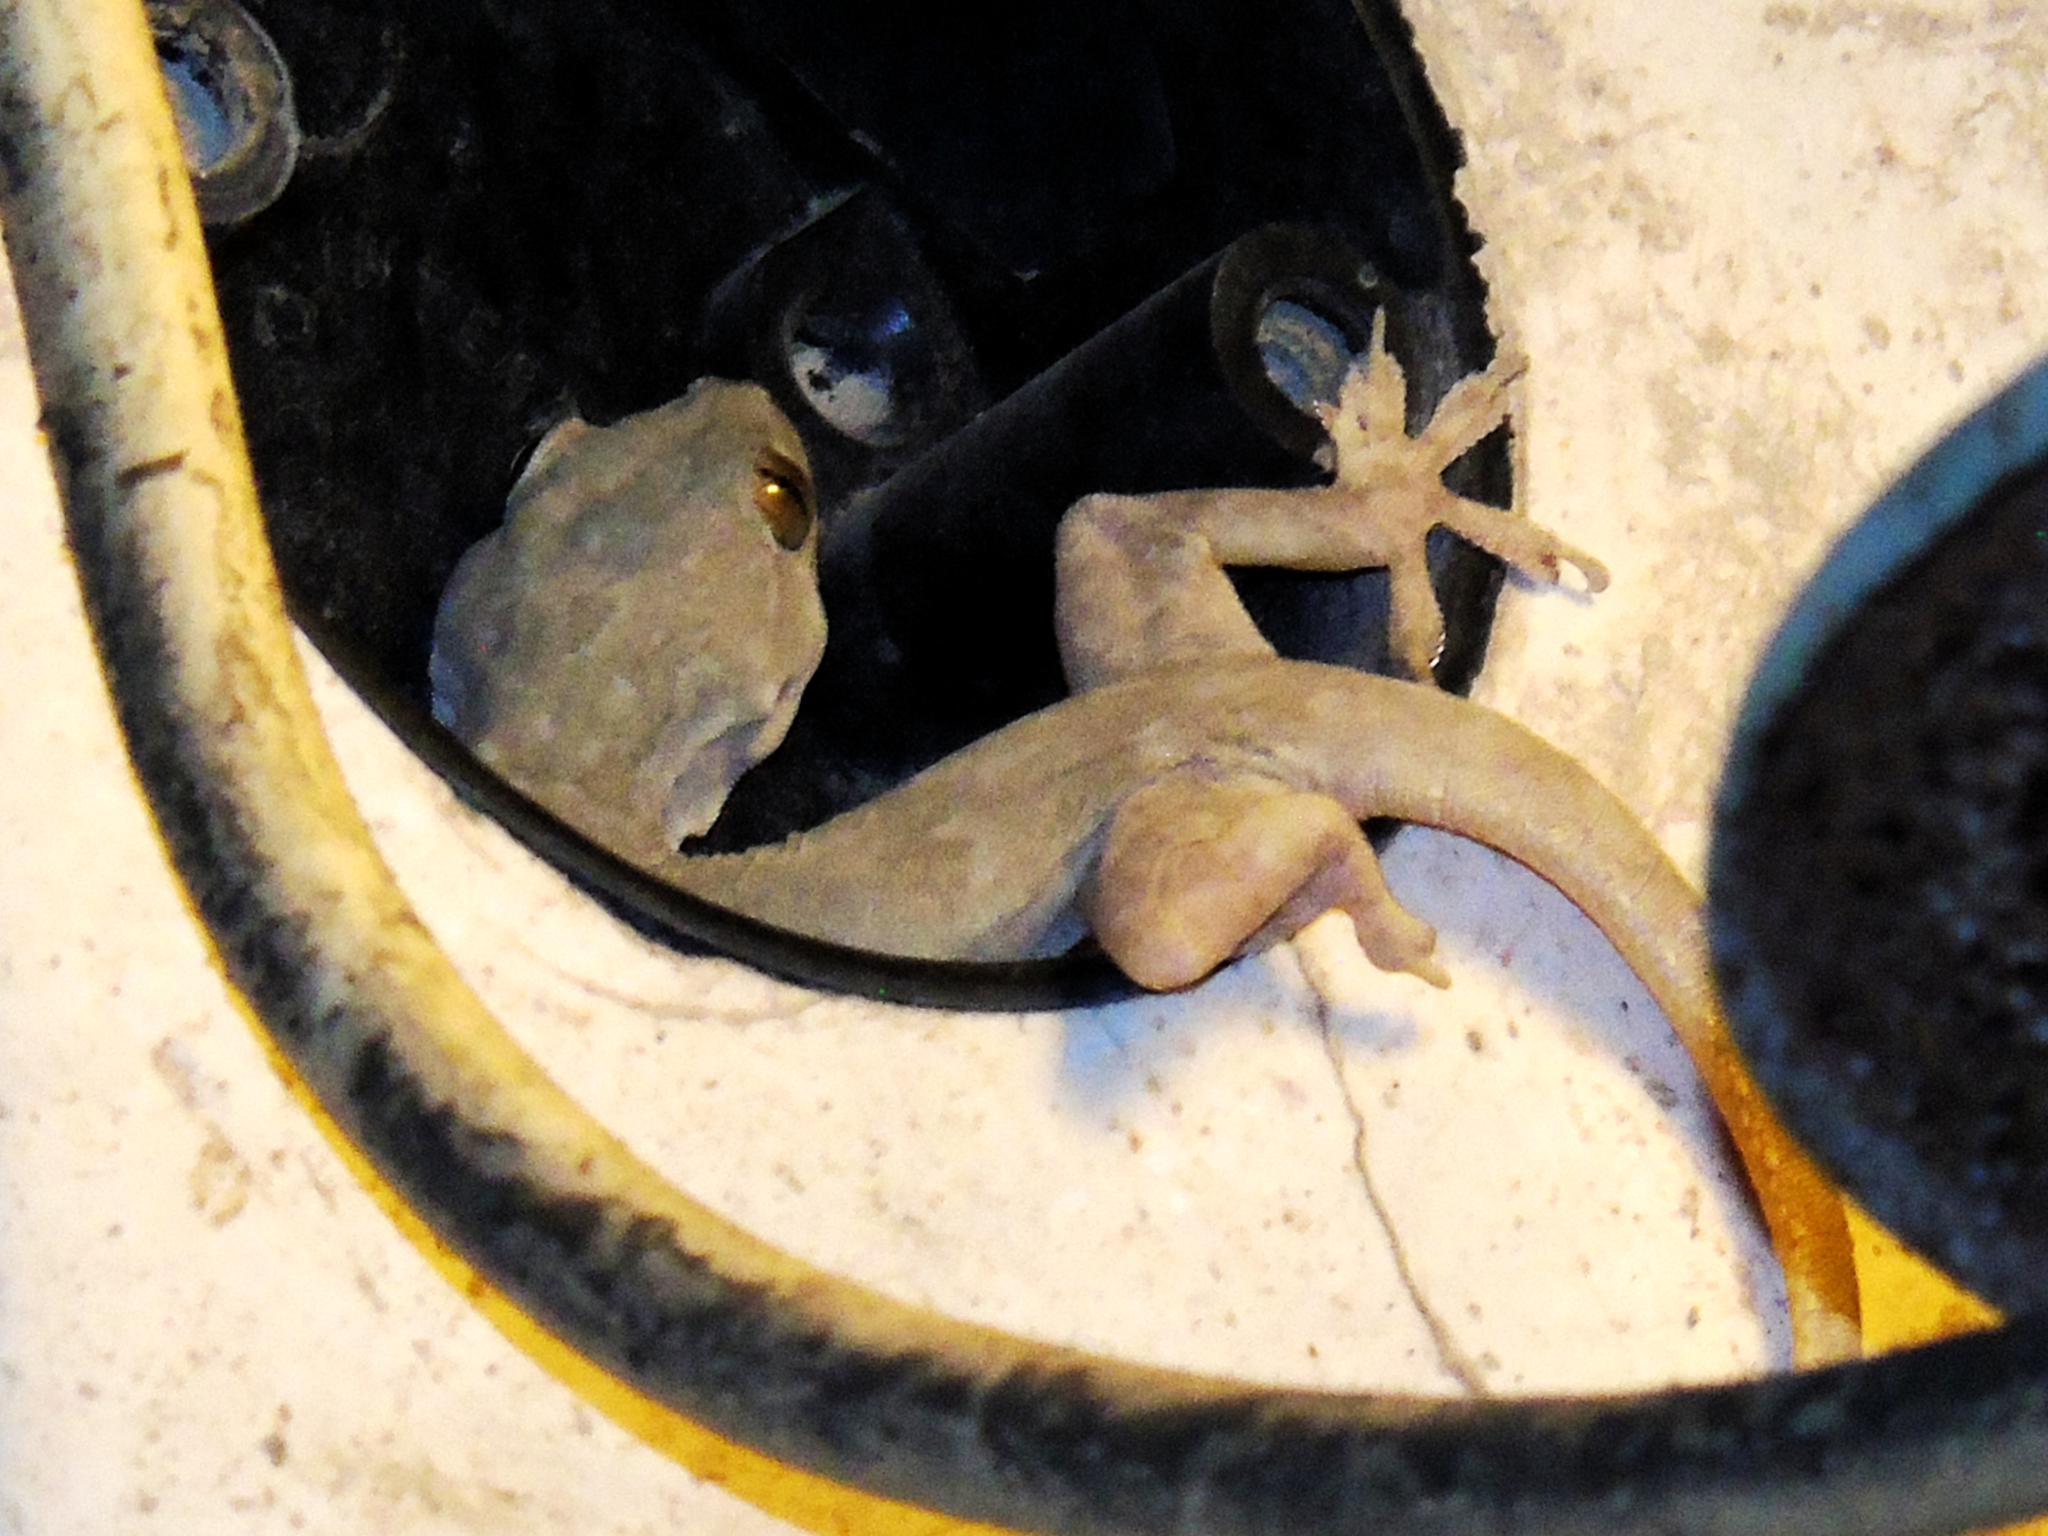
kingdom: Animalia
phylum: Chordata
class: Squamata
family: Gekkonidae
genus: Hemidactylus
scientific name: Hemidactylus flaviviridis
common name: Northern house gecko
